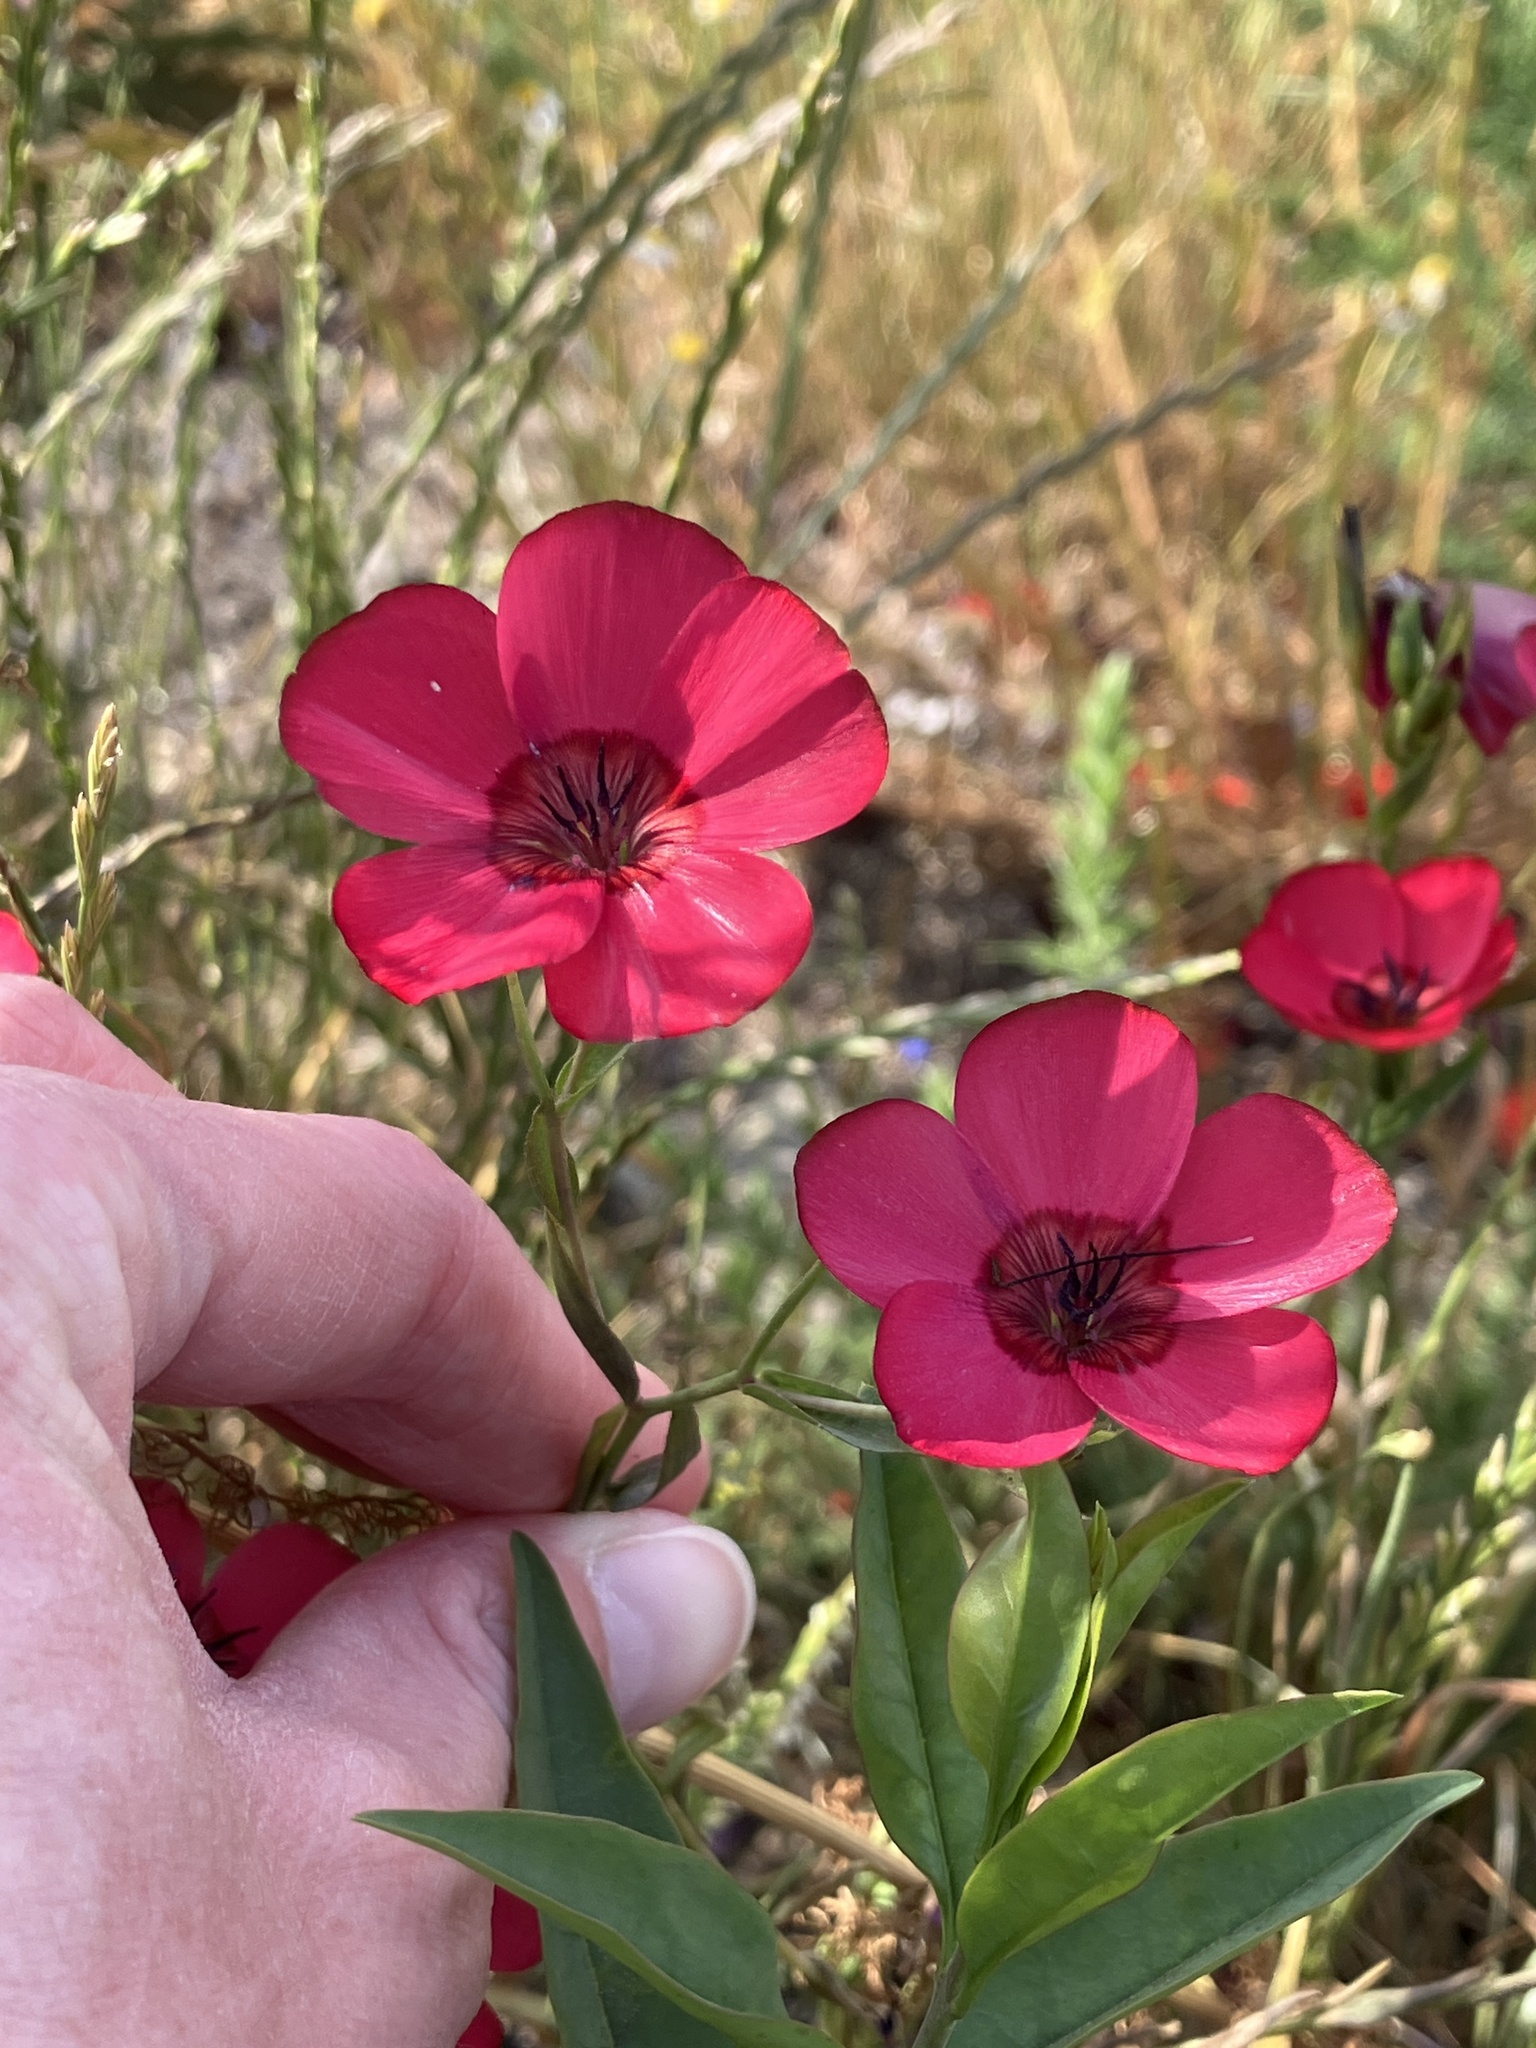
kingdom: Plantae
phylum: Tracheophyta
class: Magnoliopsida
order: Malpighiales
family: Linaceae
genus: Linum
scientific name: Linum grandiflorum
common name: Crimson flax
